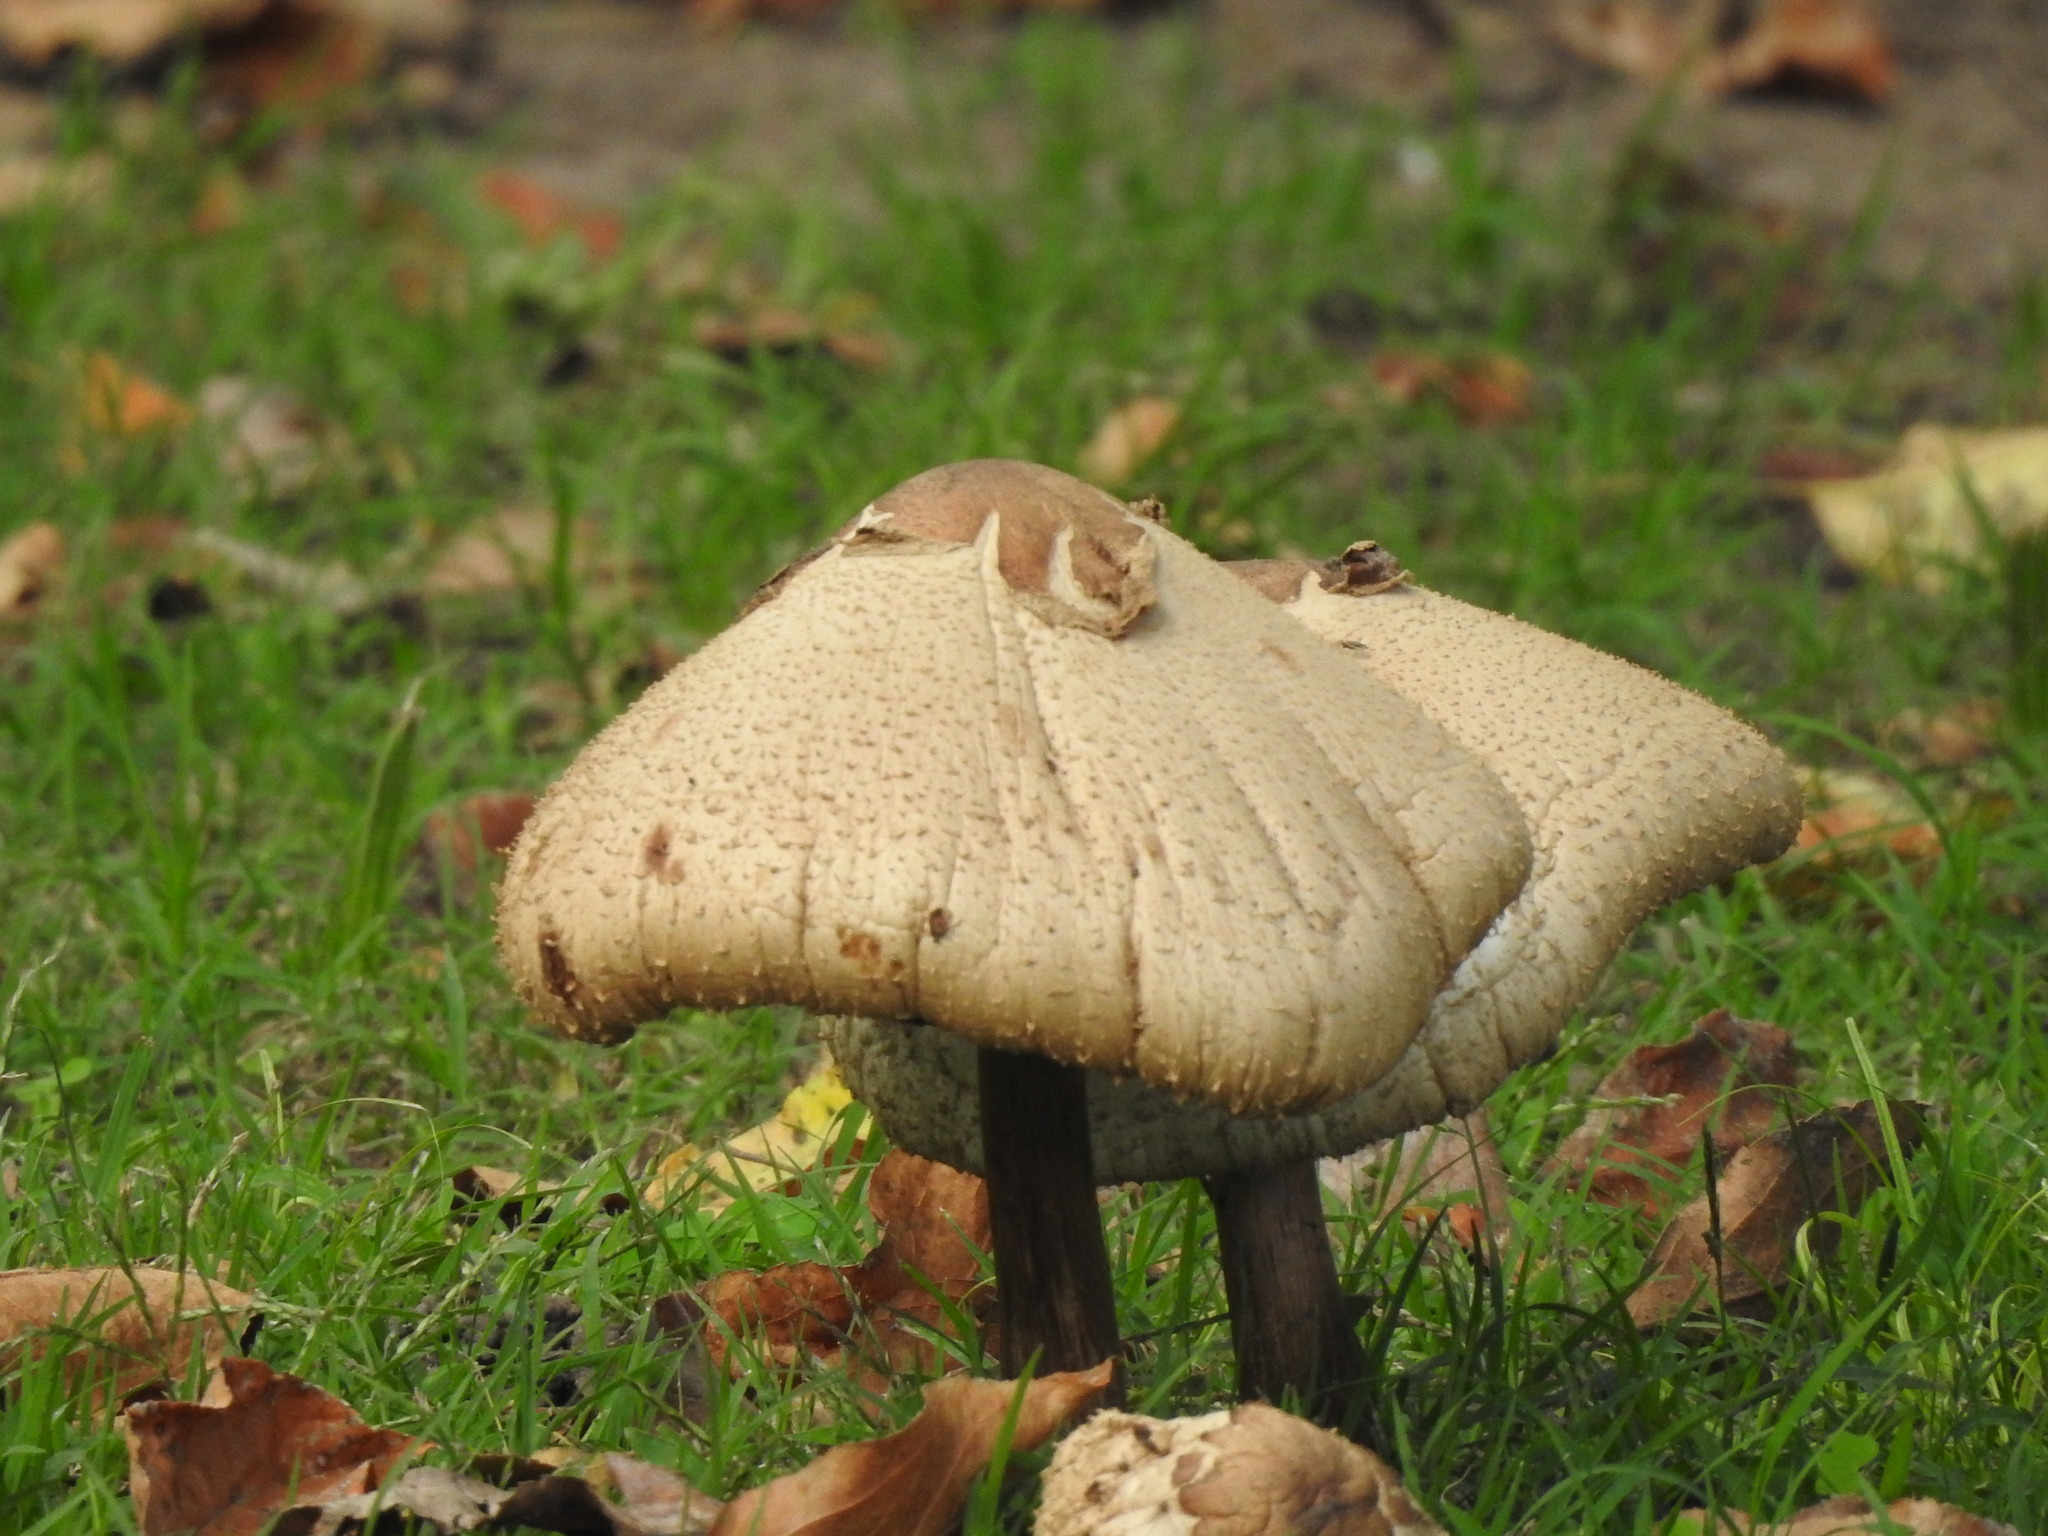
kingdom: Fungi
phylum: Basidiomycota
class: Agaricomycetes
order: Agaricales
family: Agaricaceae
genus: Chlorophyllum
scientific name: Chlorophyllum molybdites
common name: False parasol
